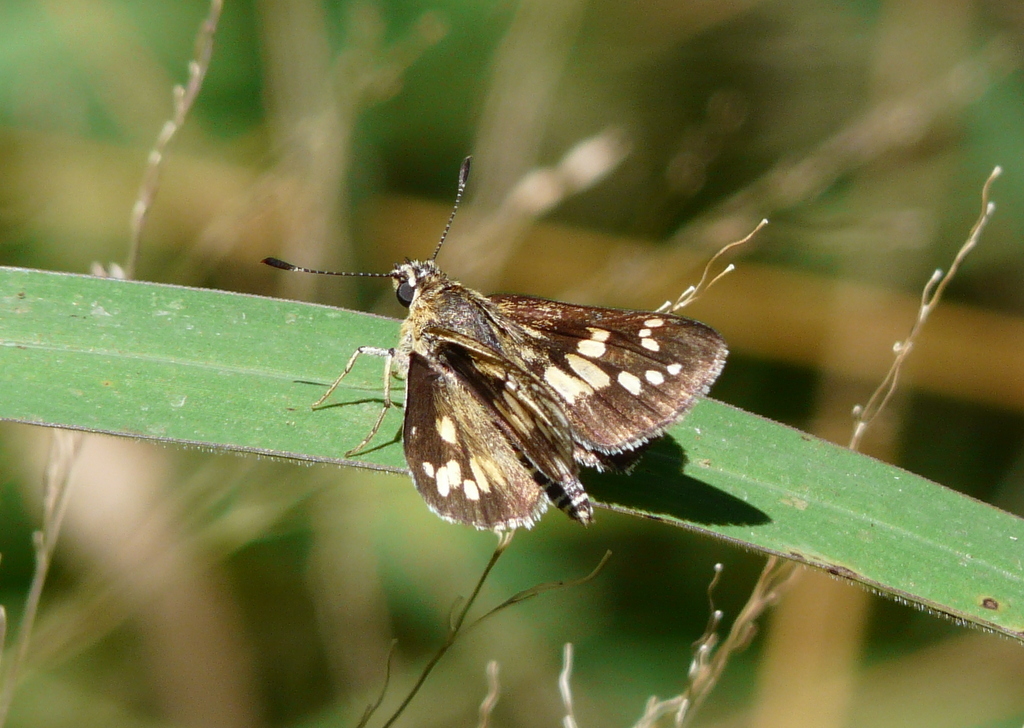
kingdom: Animalia
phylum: Arthropoda
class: Insecta
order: Lepidoptera
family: Hesperiidae
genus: Dotta
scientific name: Dotta
